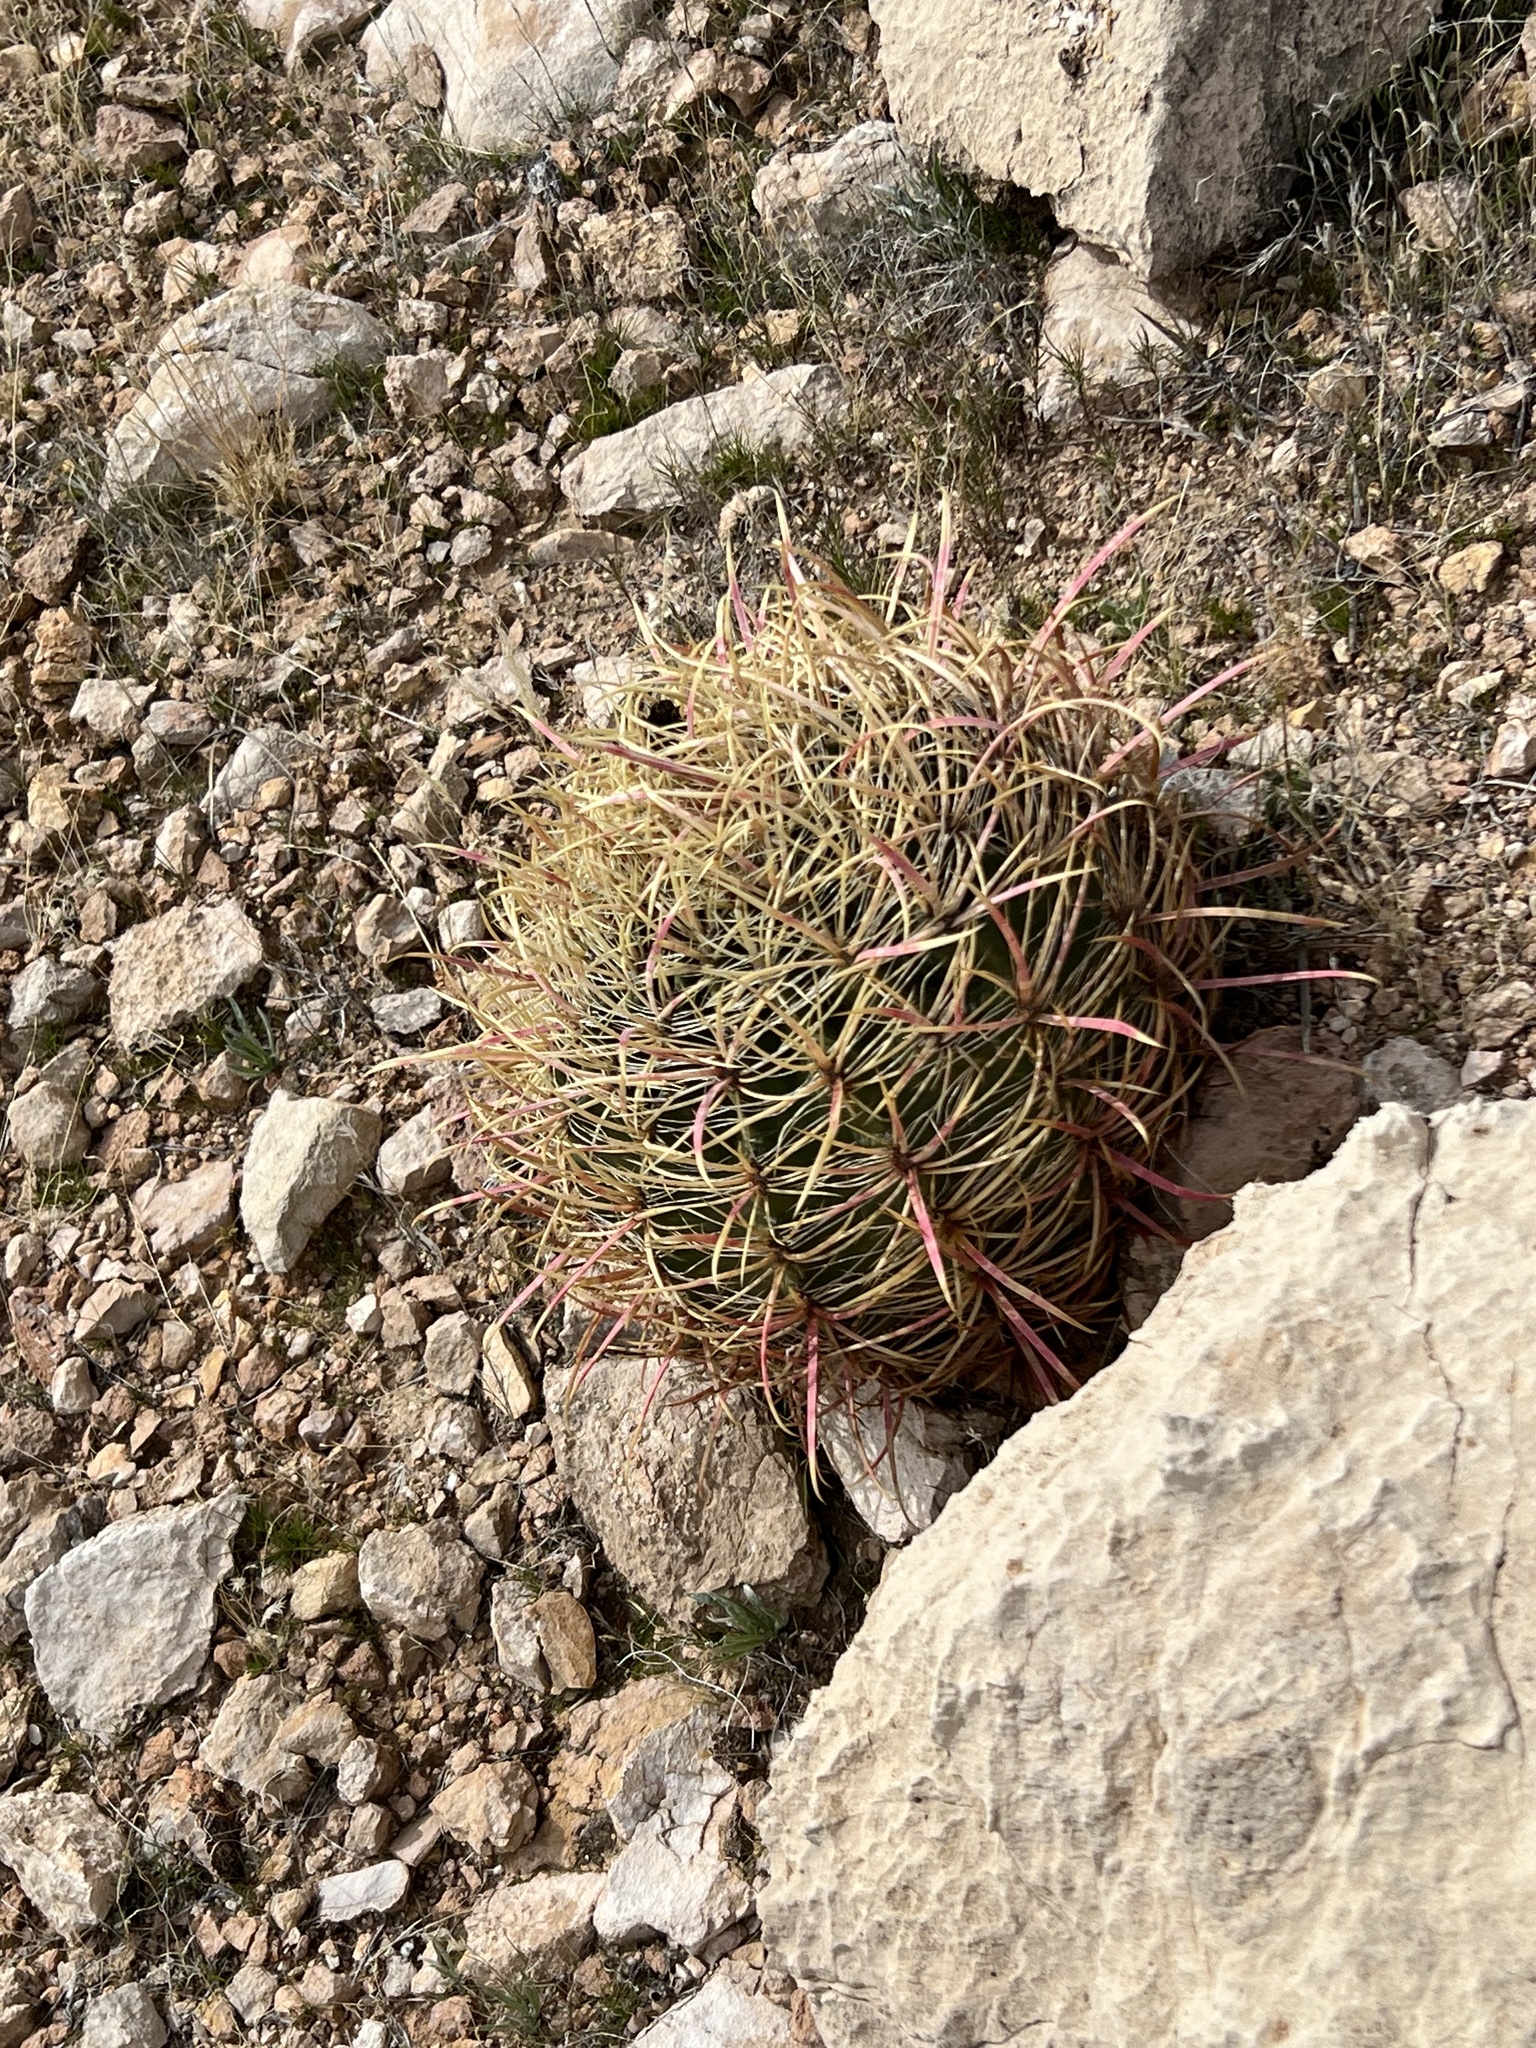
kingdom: Plantae
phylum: Tracheophyta
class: Magnoliopsida
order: Caryophyllales
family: Cactaceae
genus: Ferocactus
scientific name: Ferocactus cylindraceus
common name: California barrel cactus
